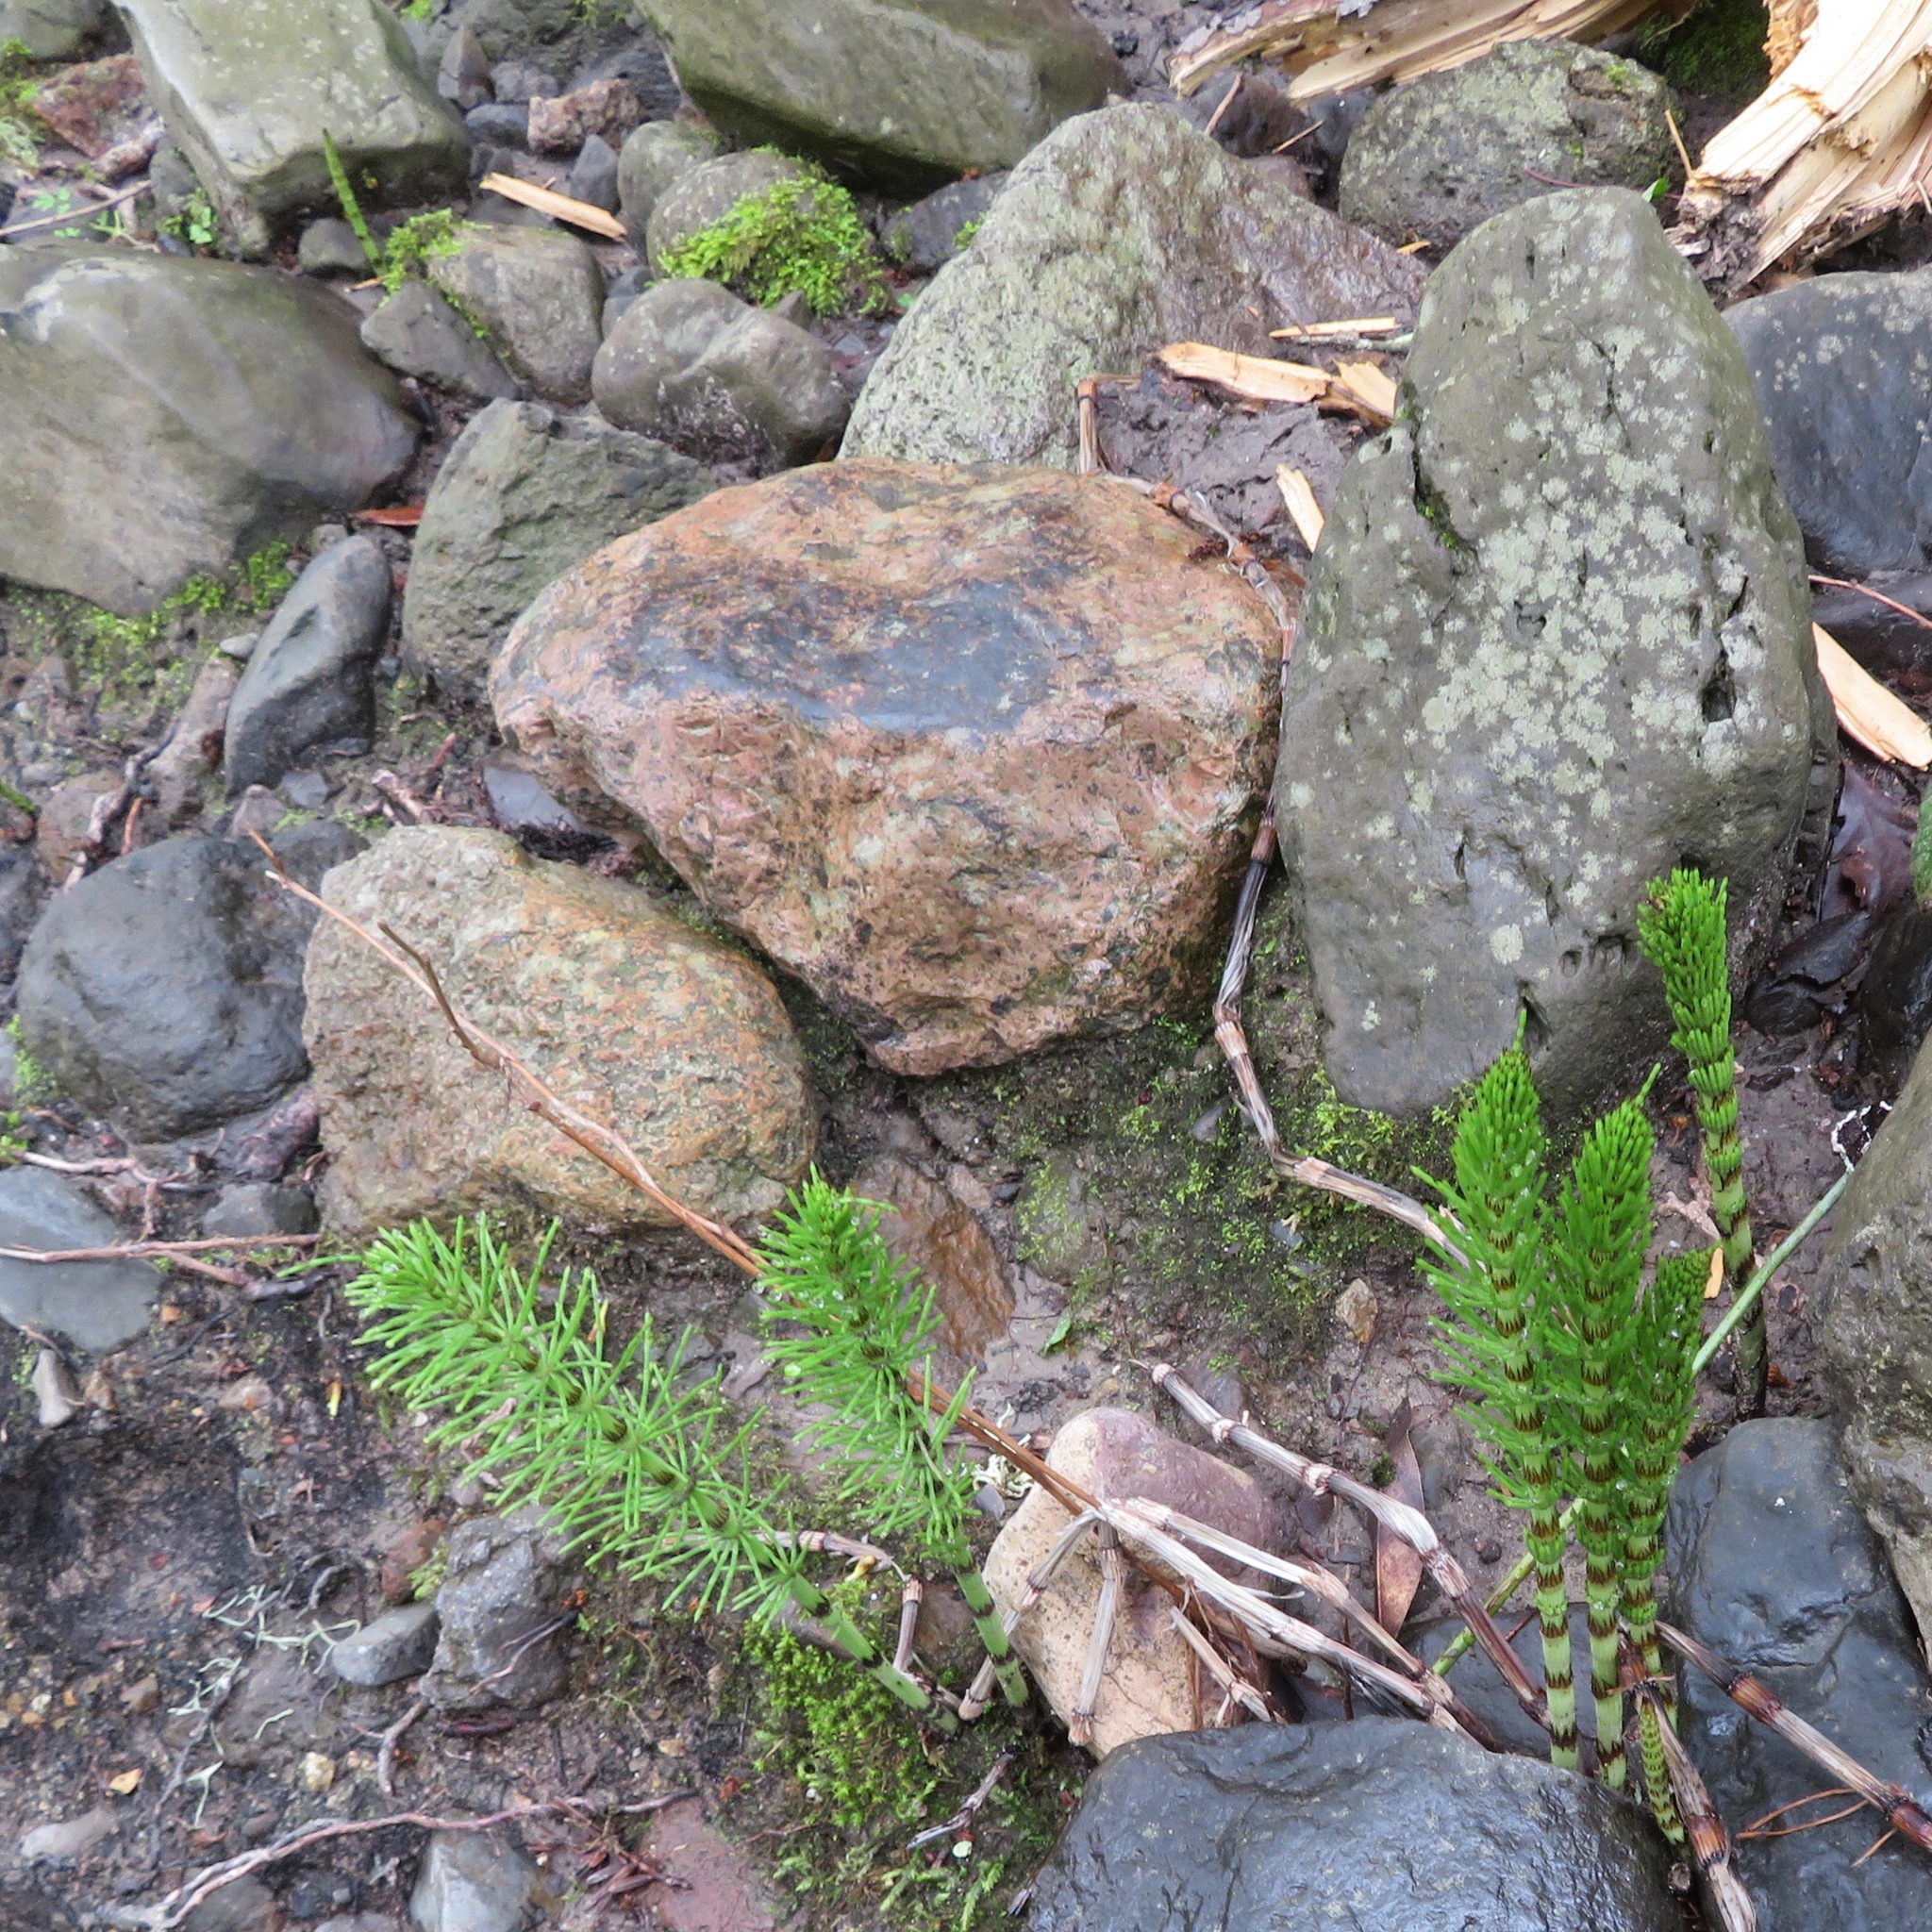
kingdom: Plantae
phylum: Tracheophyta
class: Polypodiopsida
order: Equisetales
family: Equisetaceae
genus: Equisetum
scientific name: Equisetum braunii
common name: Braun's horsetail
